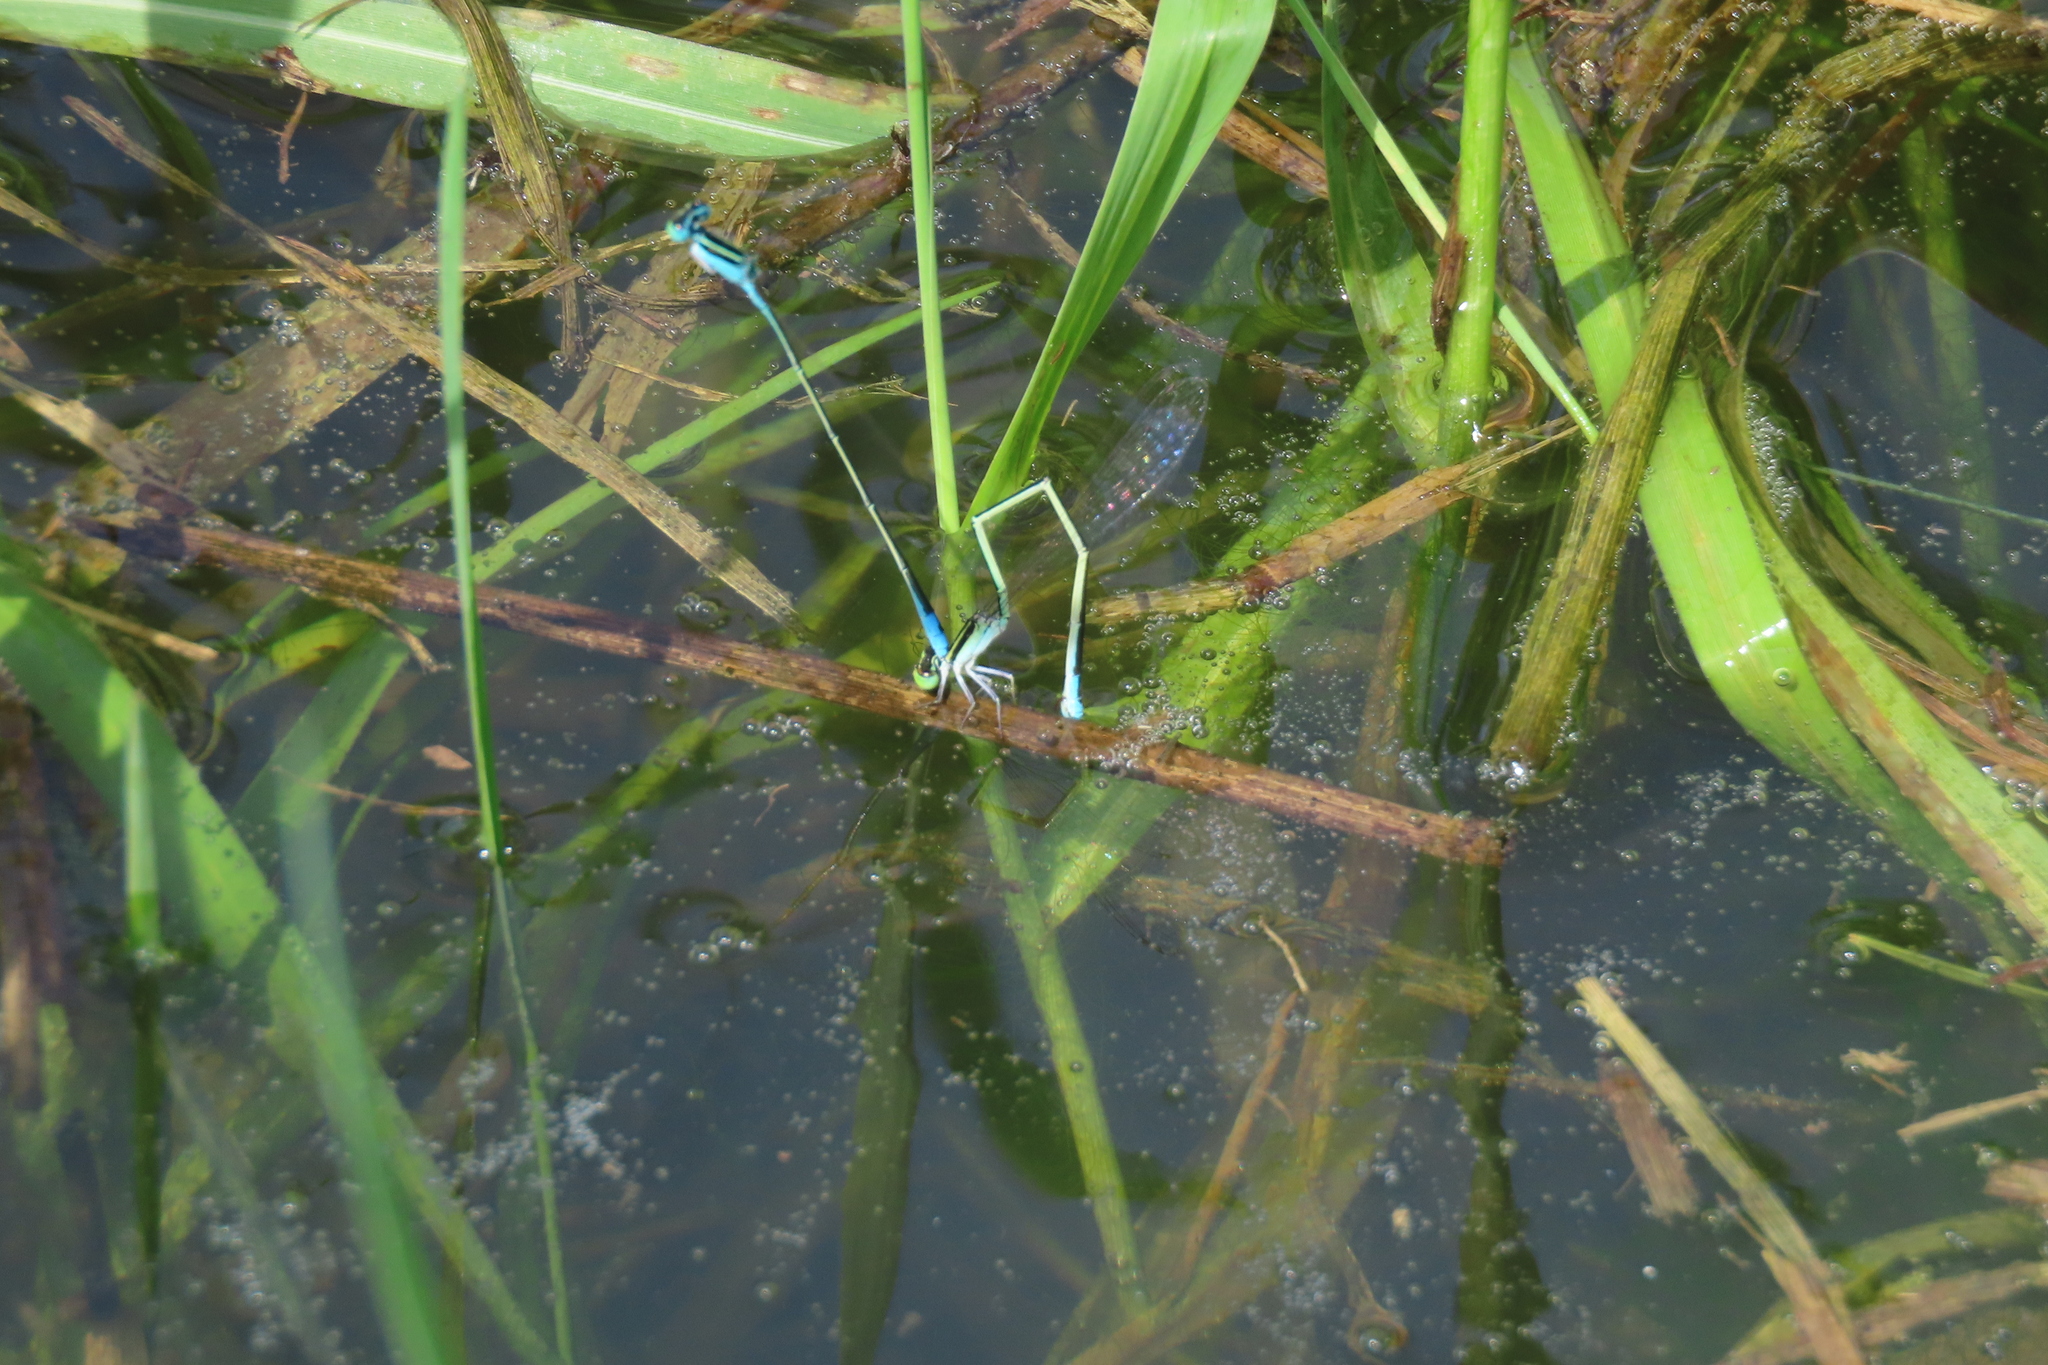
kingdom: Animalia
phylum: Arthropoda
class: Insecta
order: Odonata
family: Coenagrionidae
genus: Aciagrion
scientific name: Aciagrion occidentale
